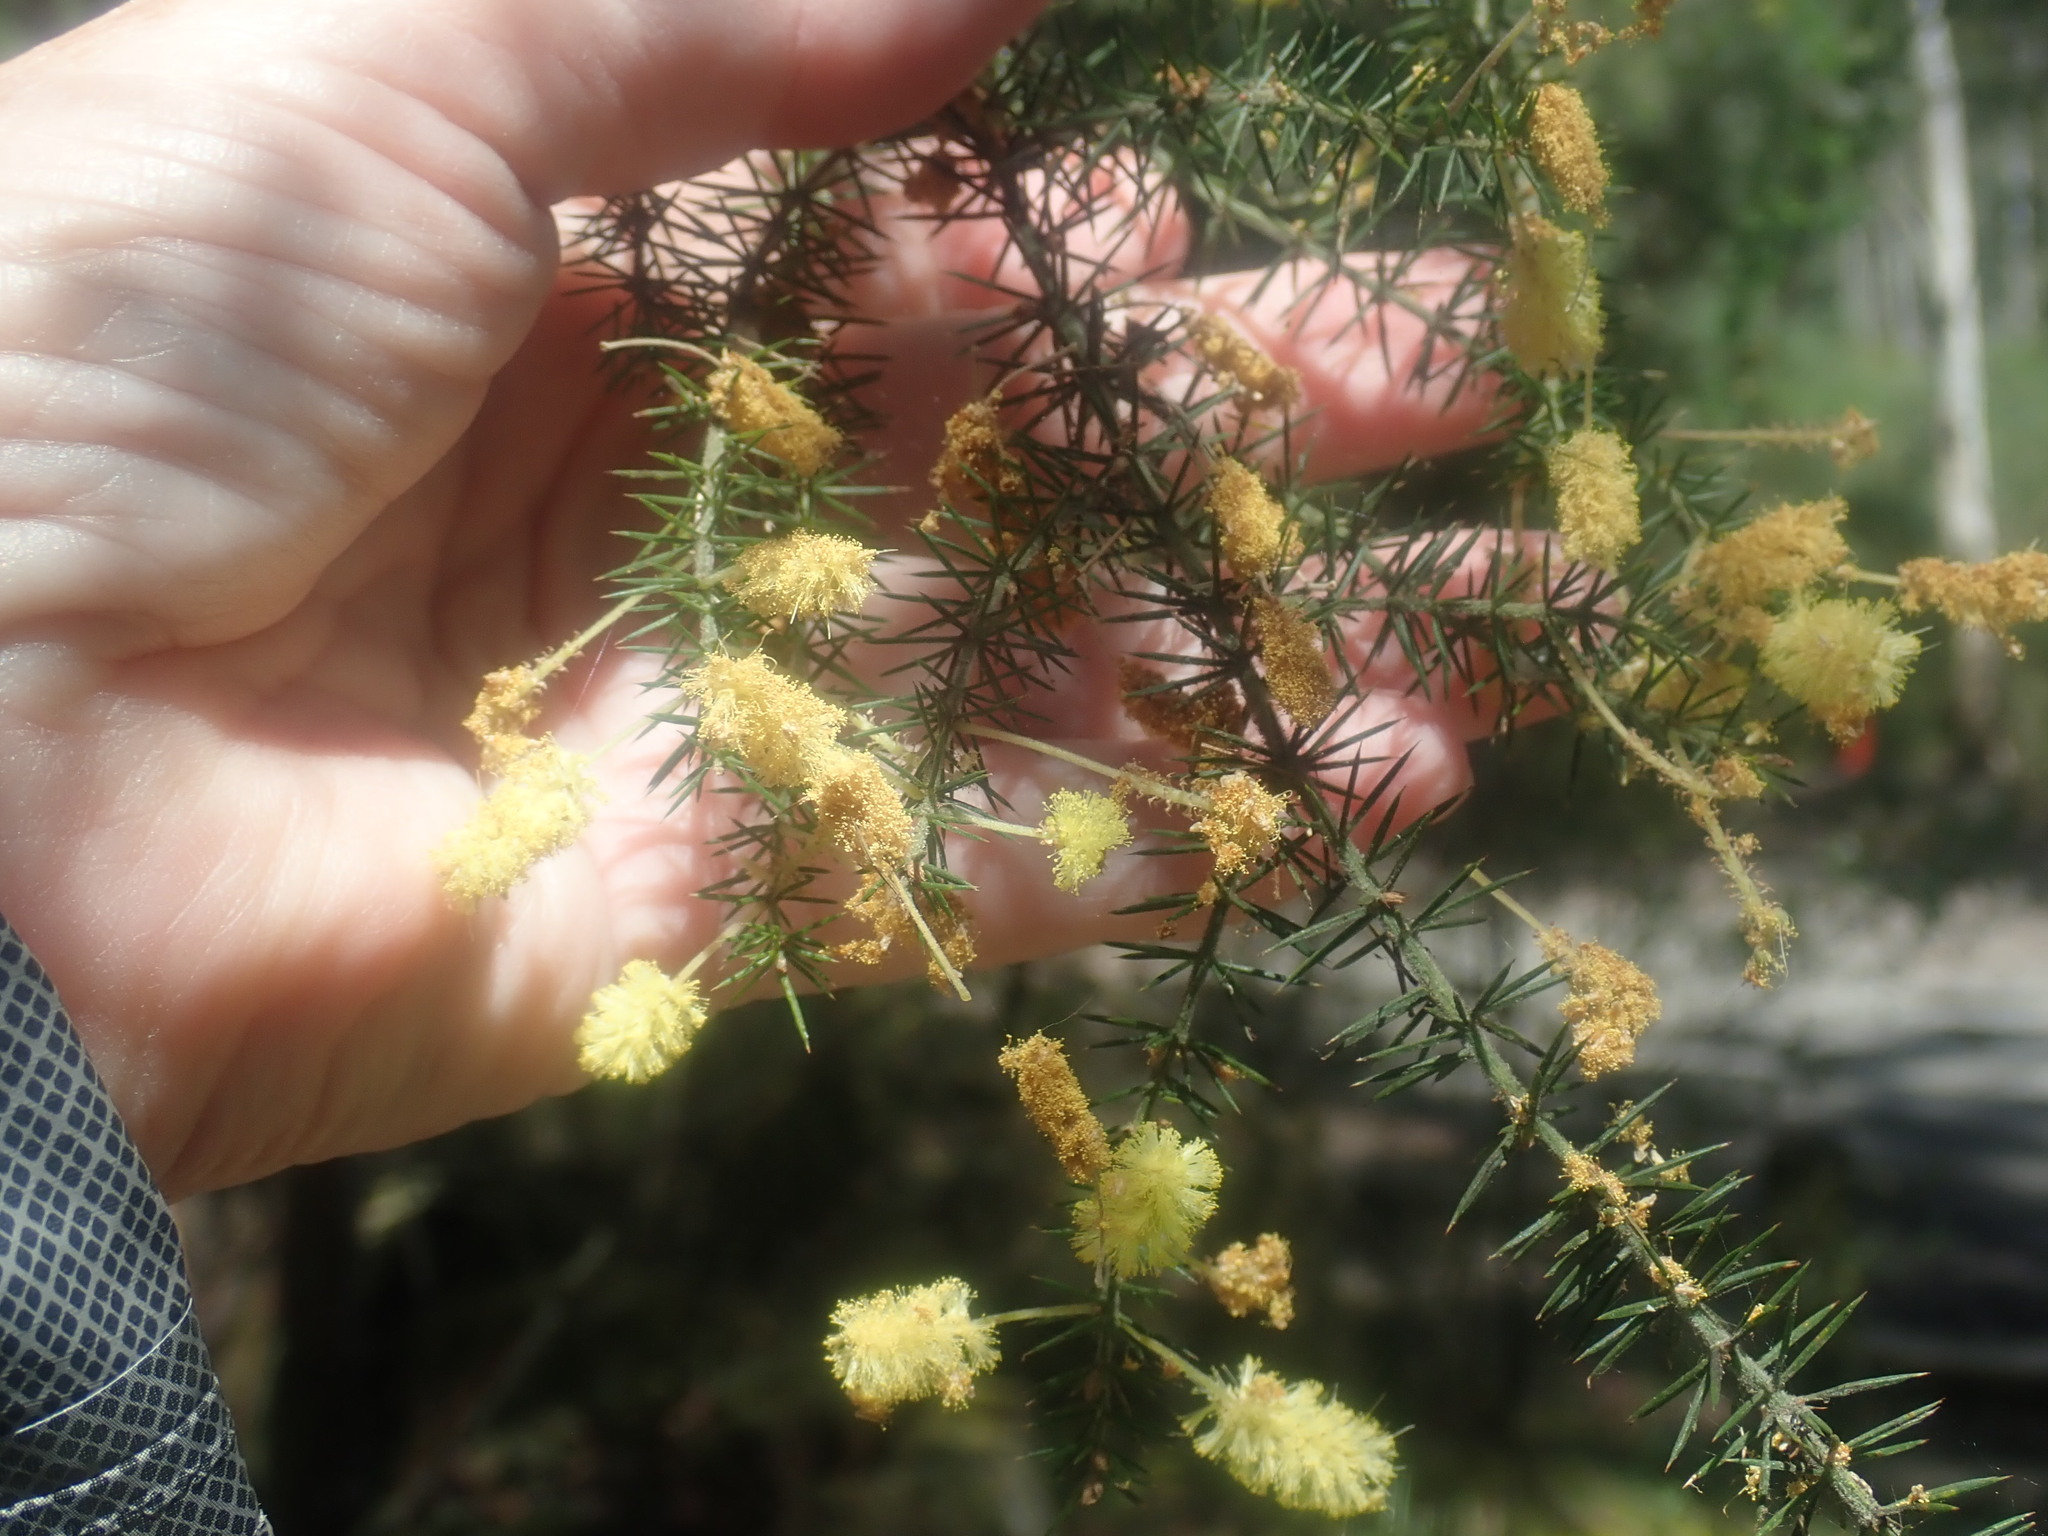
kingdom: Plantae
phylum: Tracheophyta
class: Magnoliopsida
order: Fabales
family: Fabaceae
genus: Acacia
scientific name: Acacia verticillata
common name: Prickly moses
